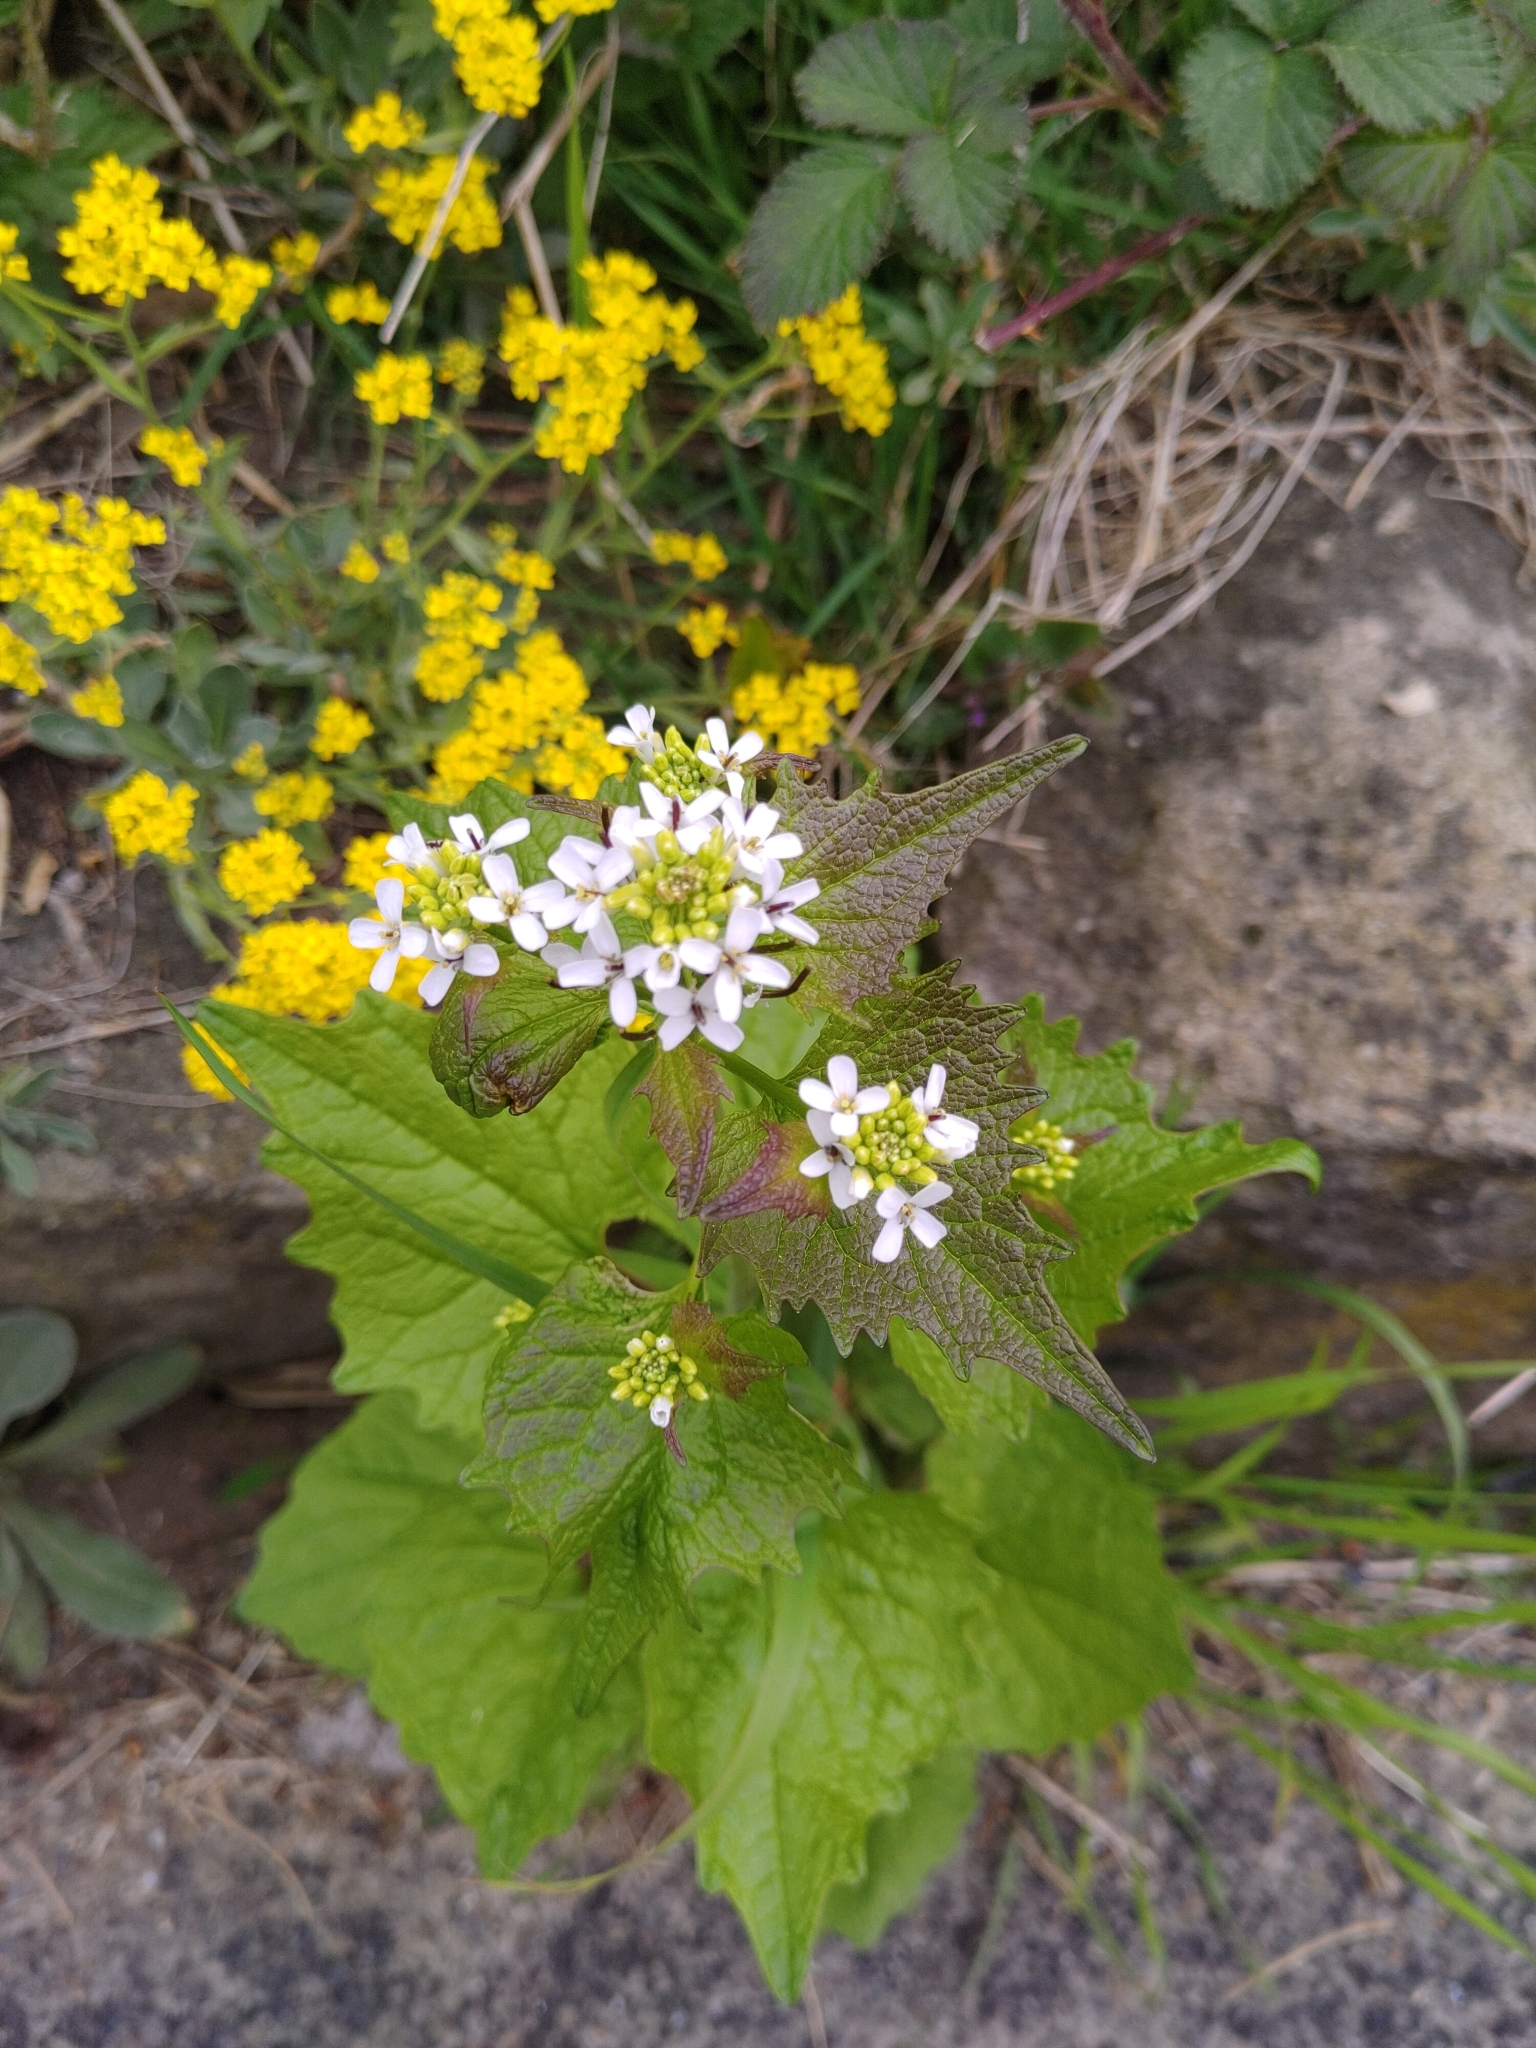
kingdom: Plantae
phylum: Tracheophyta
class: Magnoliopsida
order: Brassicales
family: Brassicaceae
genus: Alliaria
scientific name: Alliaria petiolata
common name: Garlic mustard
